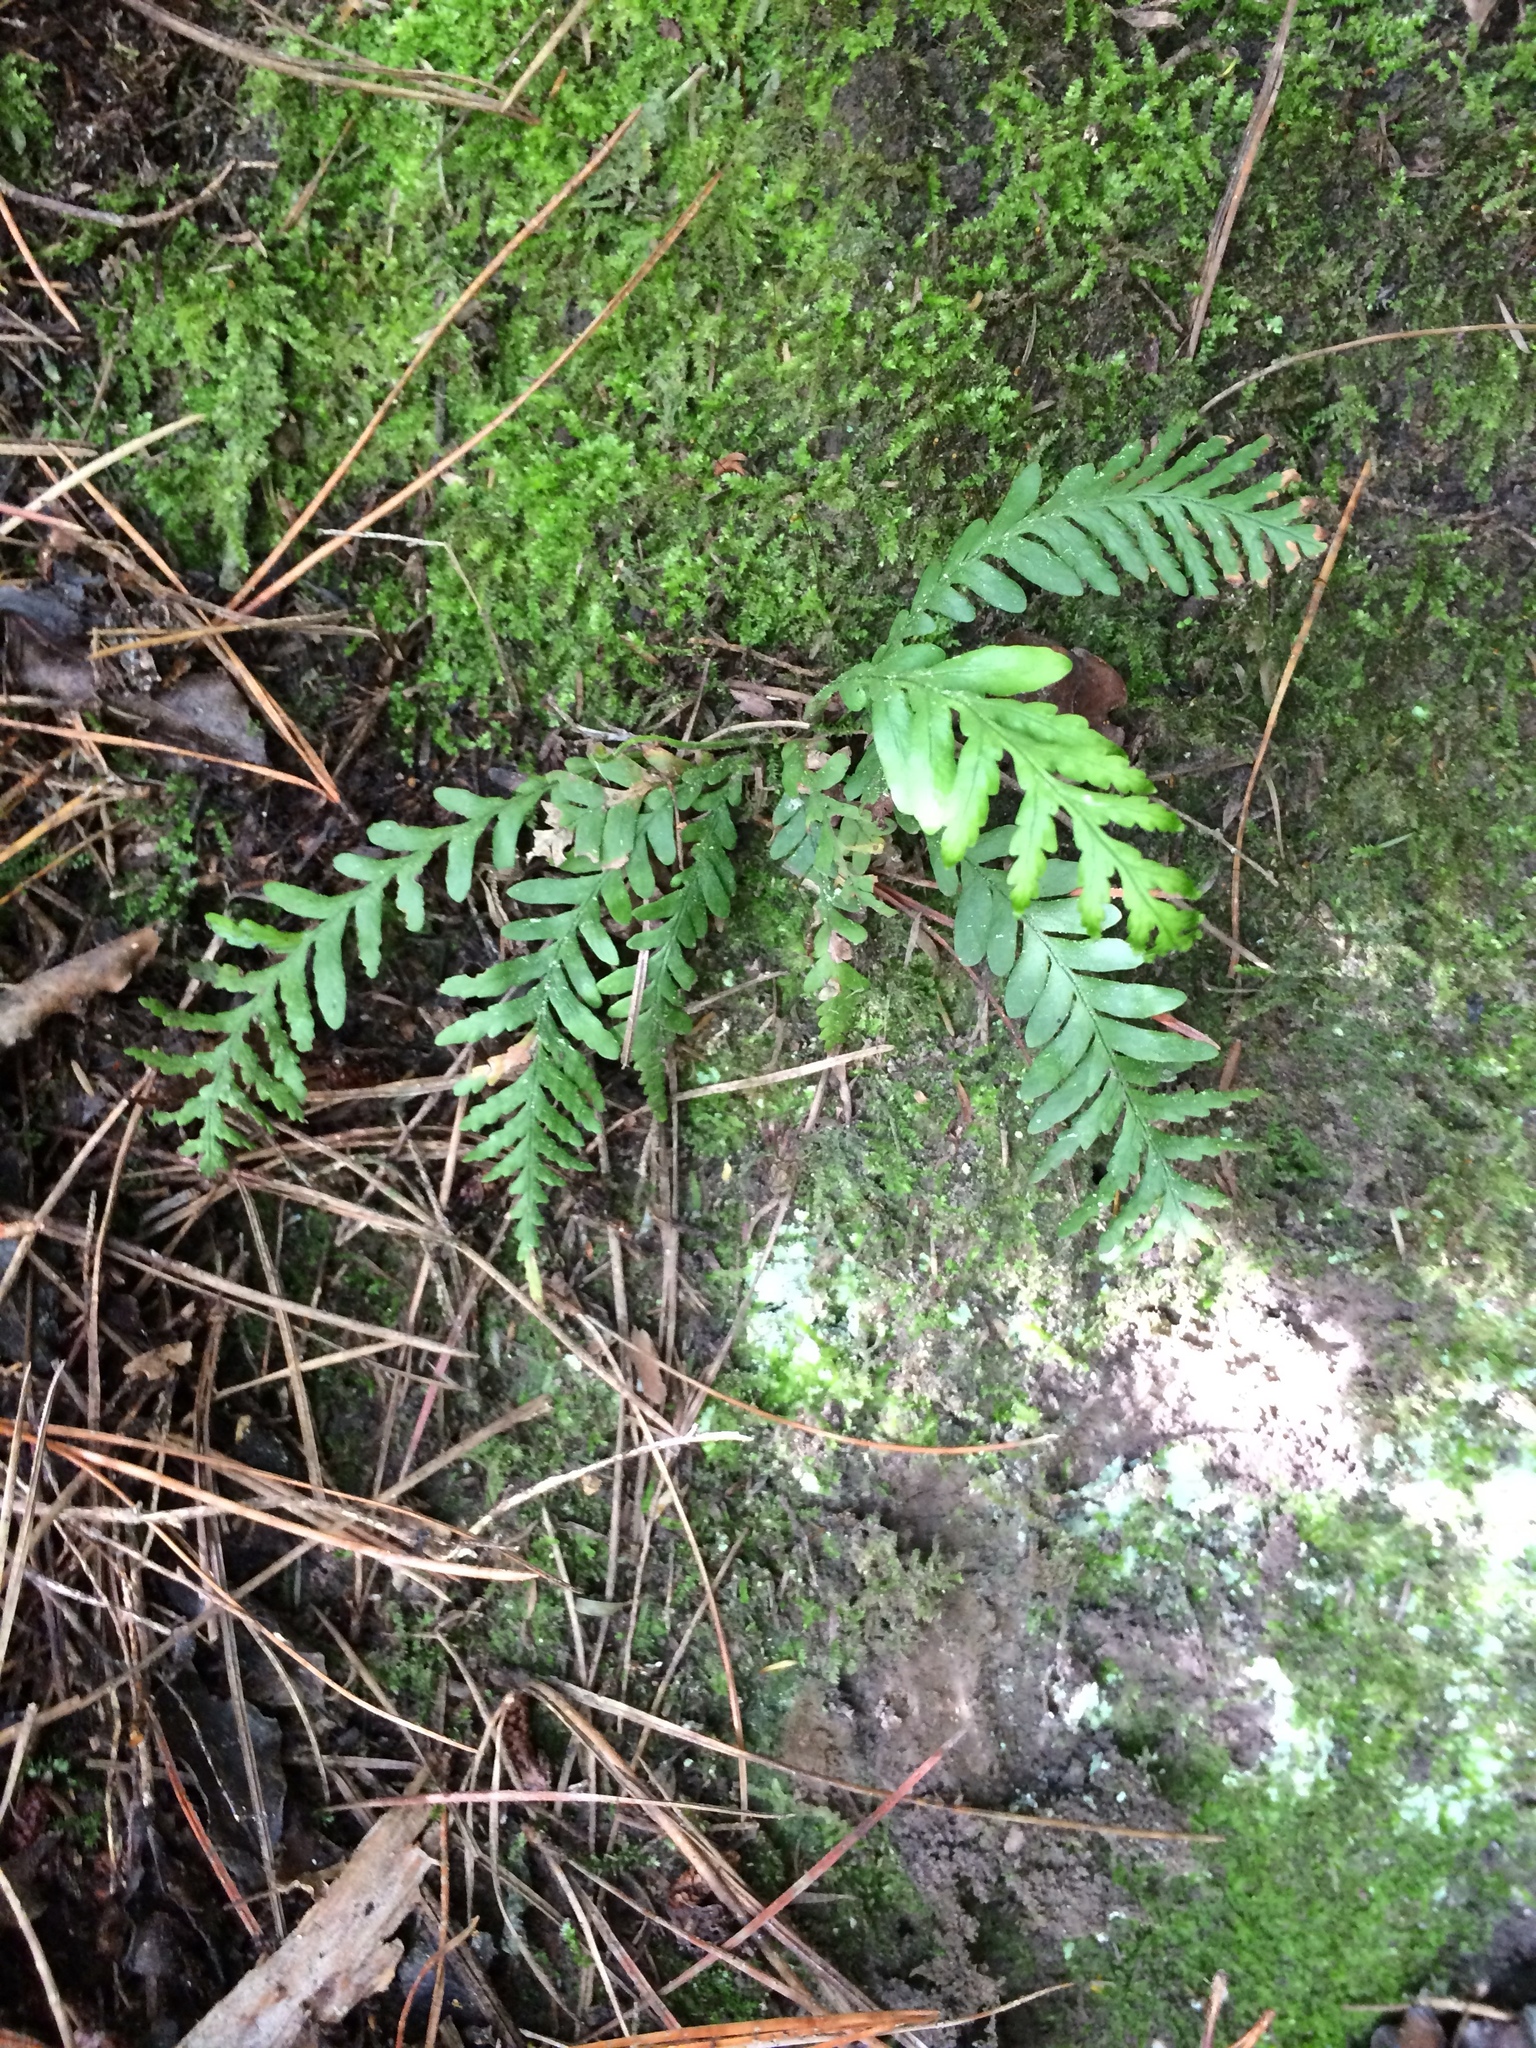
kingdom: Plantae
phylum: Tracheophyta
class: Polypodiopsida
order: Polypodiales
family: Polypodiaceae
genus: Notogrammitis
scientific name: Notogrammitis heterophylla
